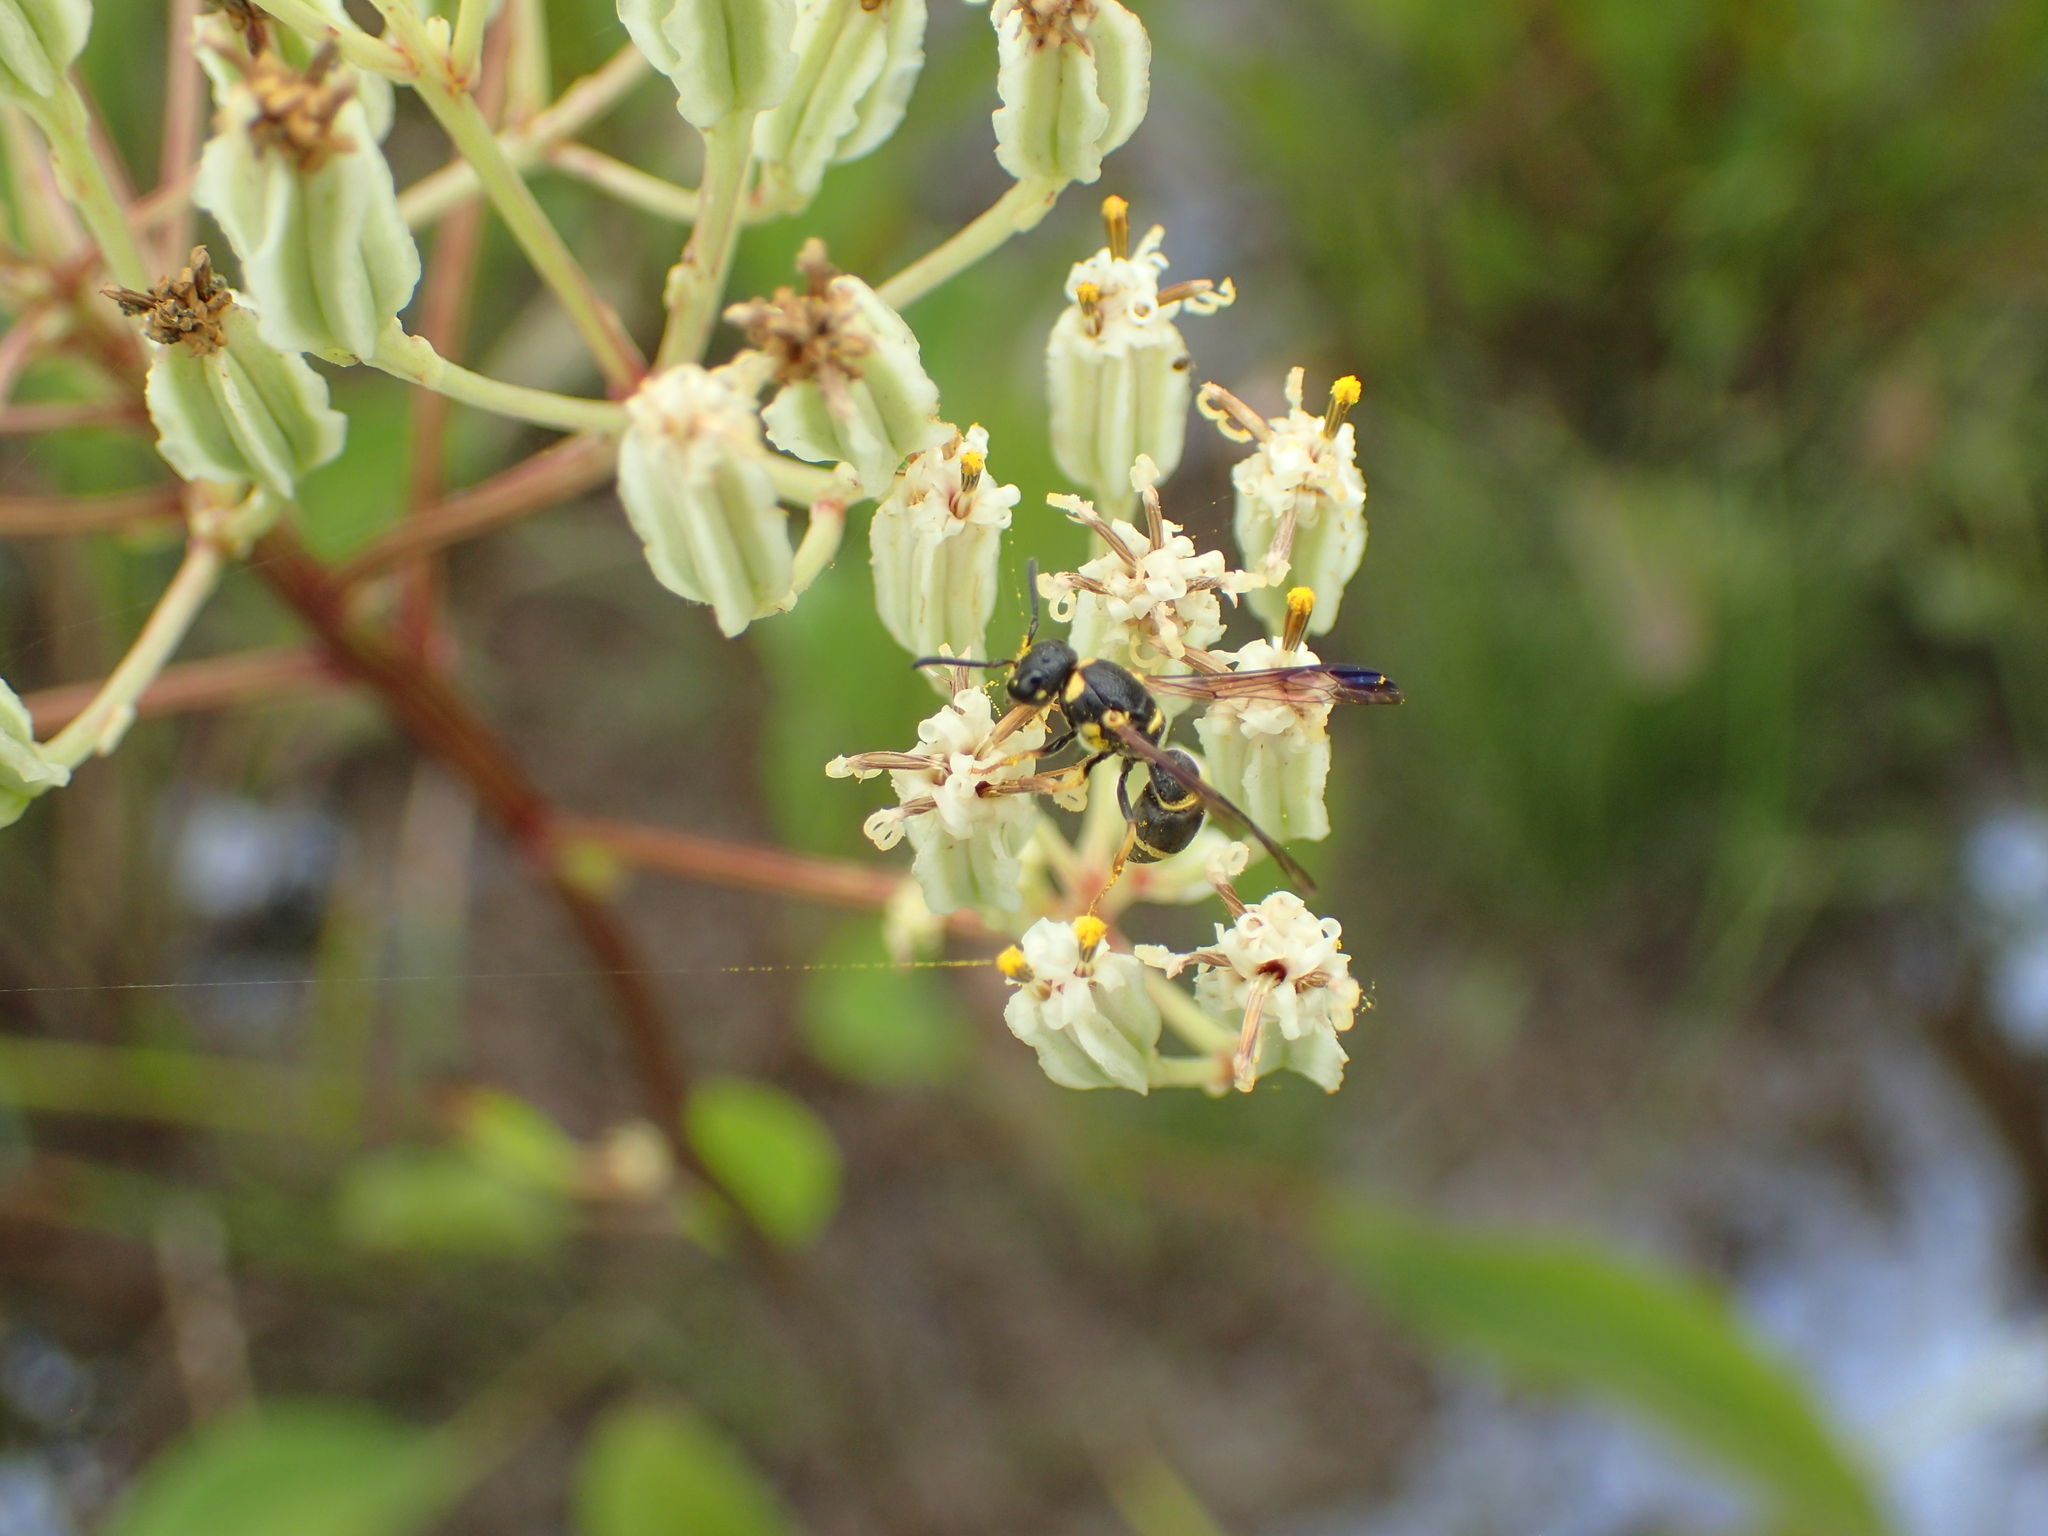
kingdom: Animalia
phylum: Arthropoda
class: Insecta
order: Hymenoptera
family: Eumenidae
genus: Parancistrocerus
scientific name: Parancistrocerus perennis
